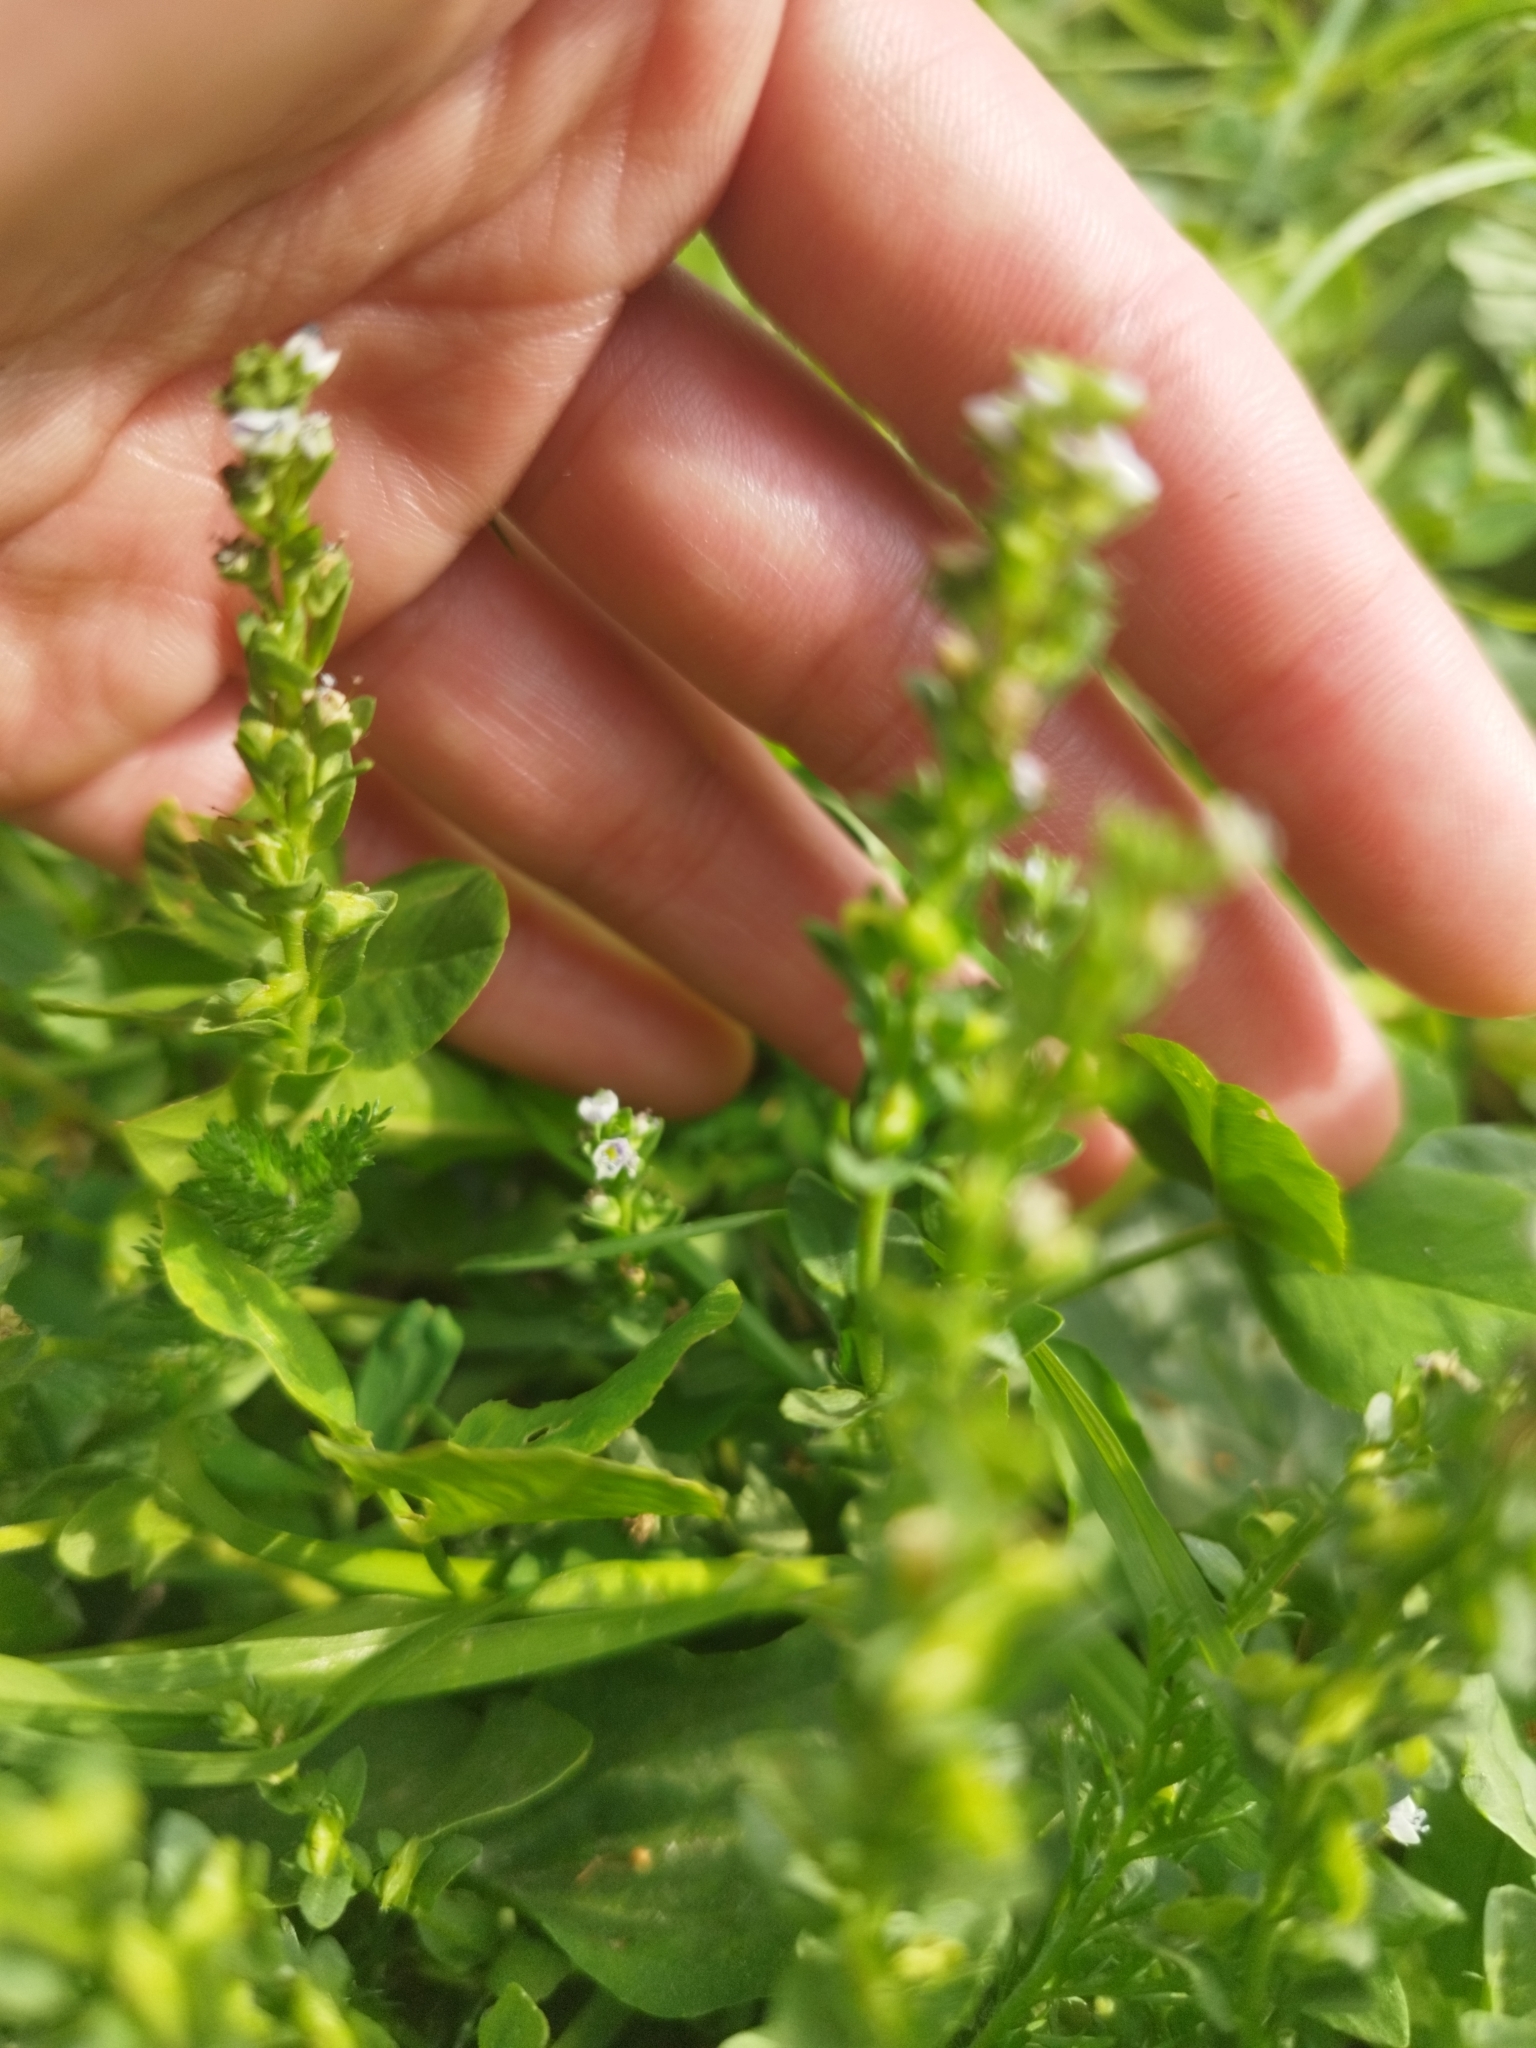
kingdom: Plantae
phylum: Tracheophyta
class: Magnoliopsida
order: Lamiales
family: Plantaginaceae
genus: Veronica
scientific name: Veronica serpyllifolia
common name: Thyme-leaved speedwell
